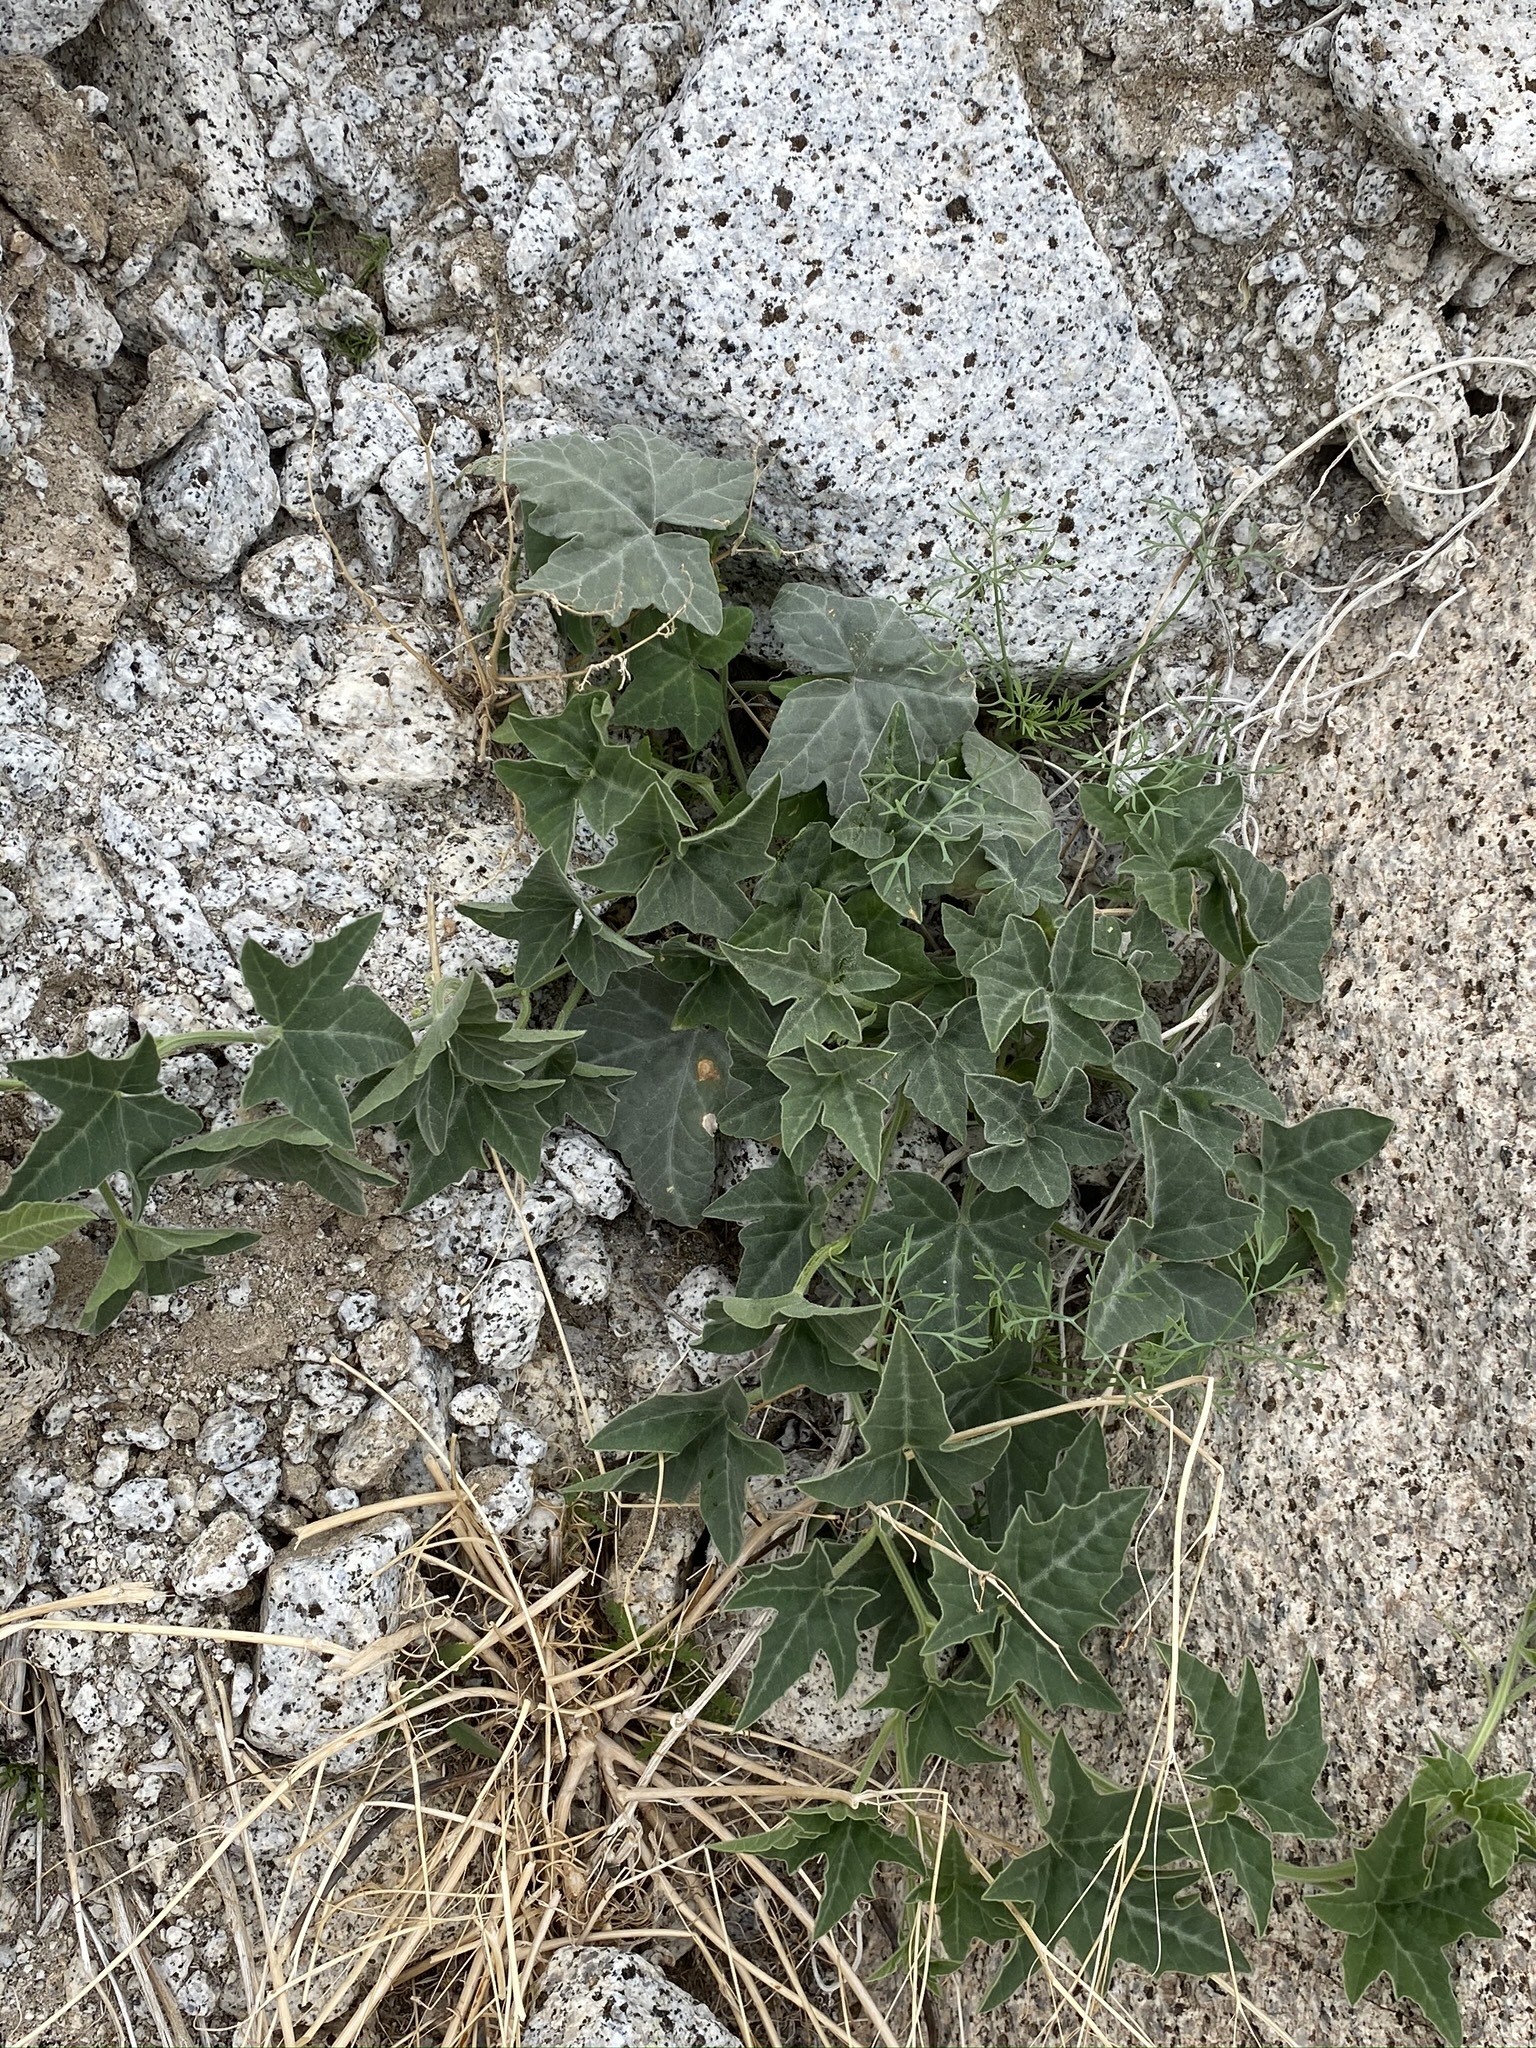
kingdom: Plantae
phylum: Tracheophyta
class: Magnoliopsida
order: Cucurbitales
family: Cucurbitaceae
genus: Cucurbita
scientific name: Cucurbita palmata
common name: Coyote-melon
